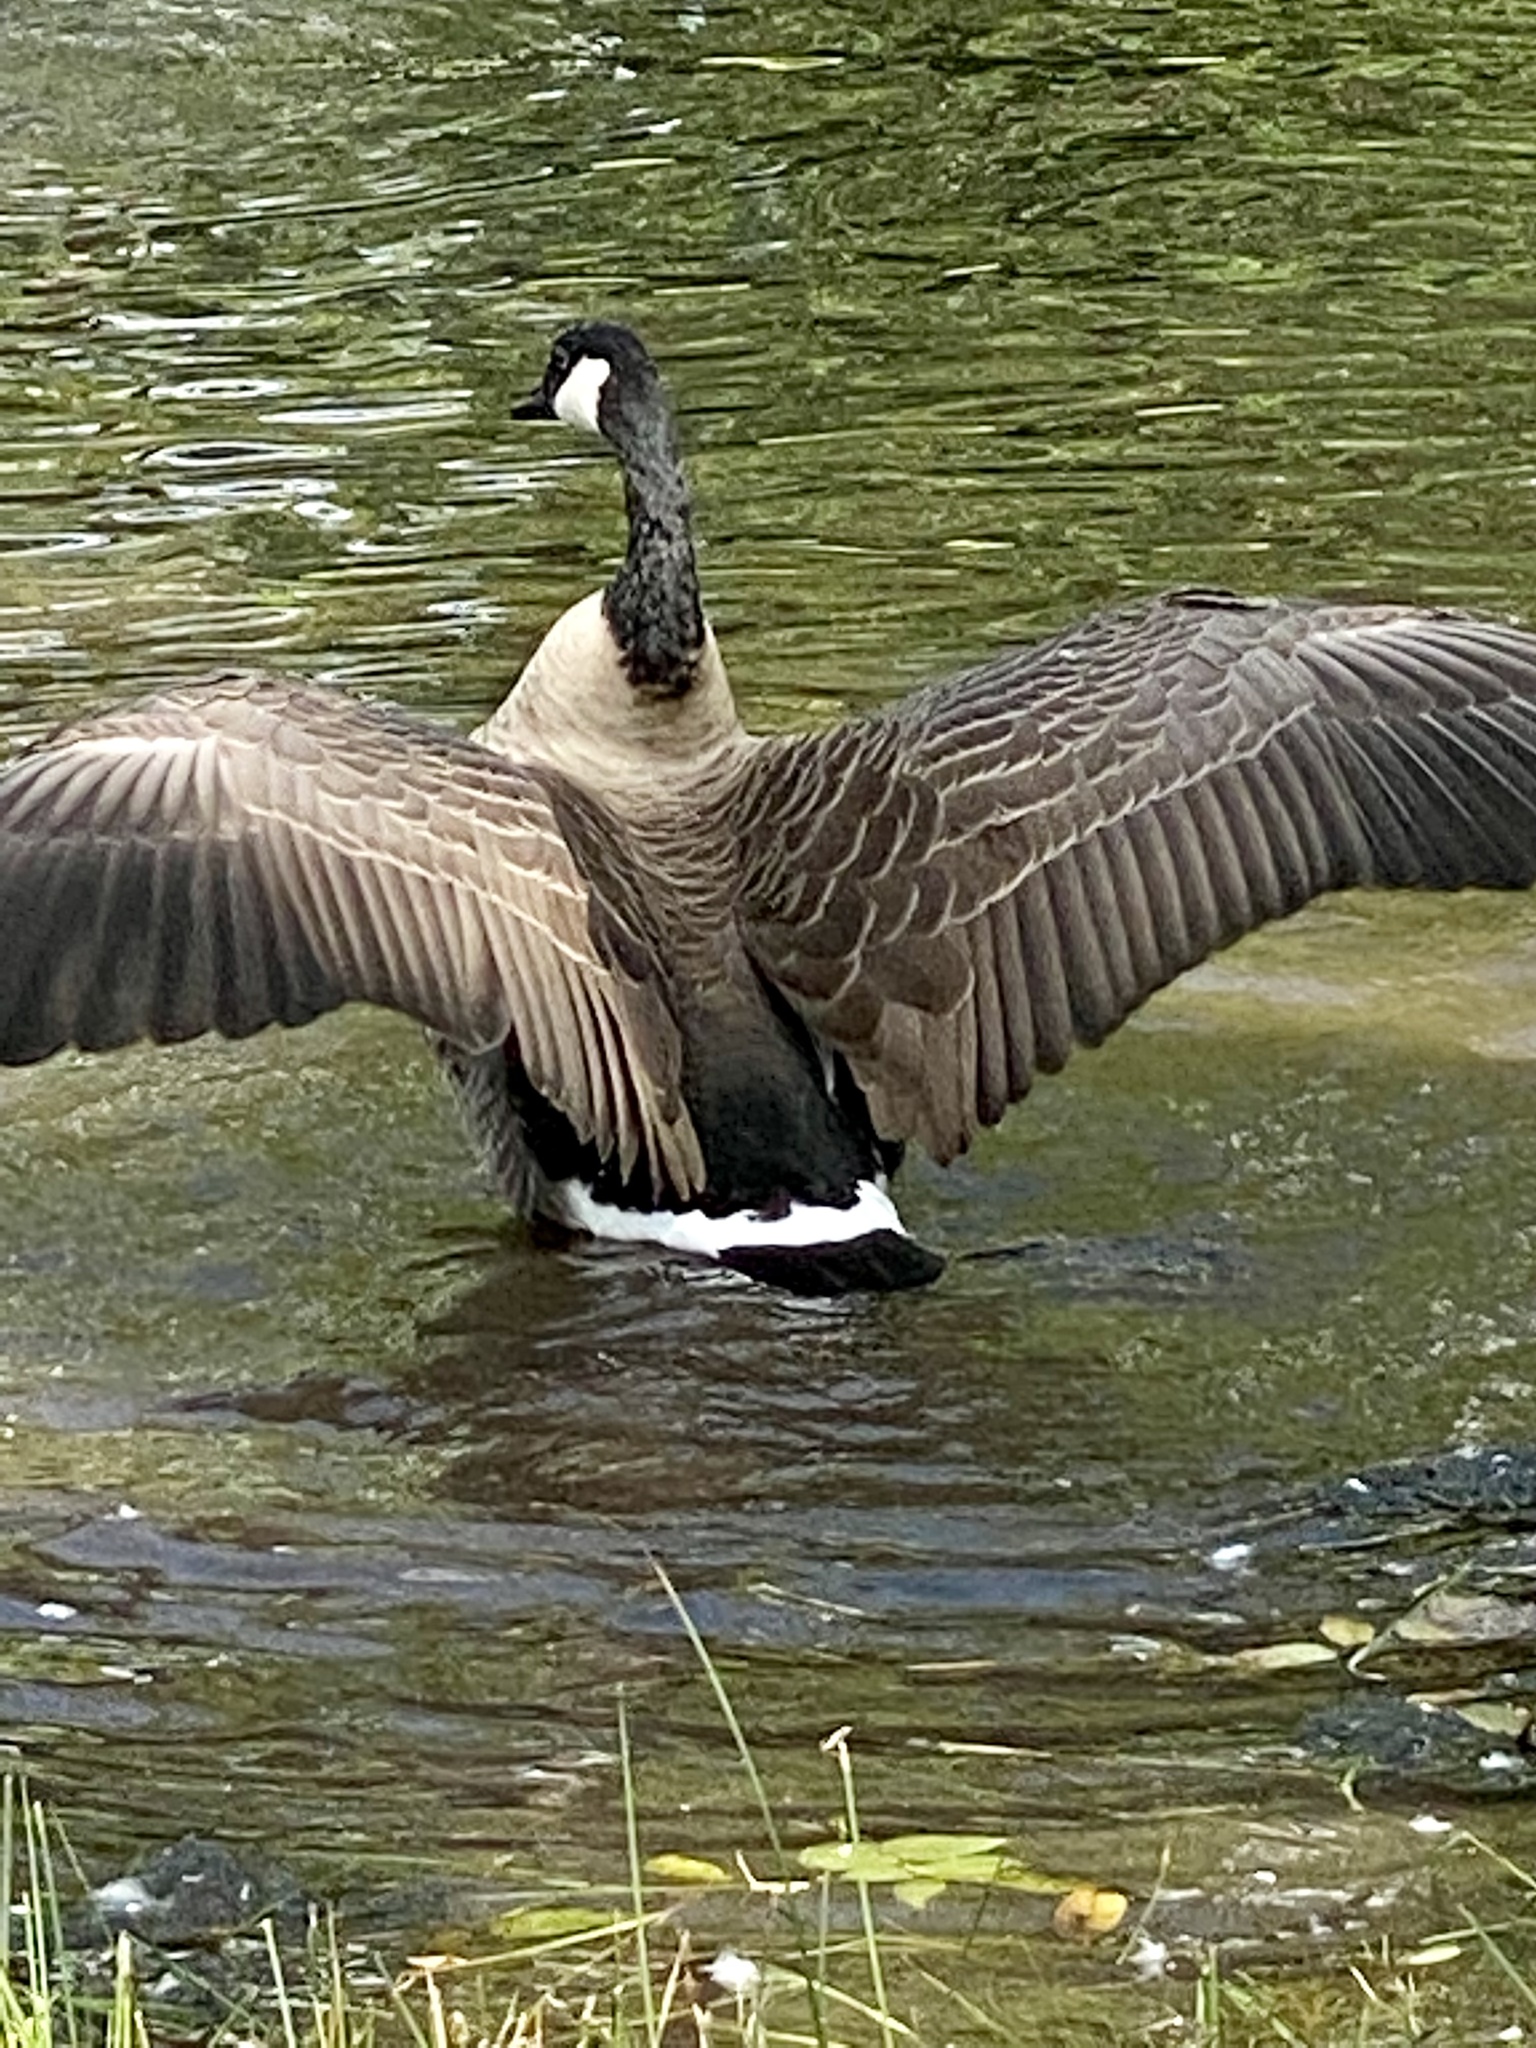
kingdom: Animalia
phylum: Chordata
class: Aves
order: Anseriformes
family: Anatidae
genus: Branta
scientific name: Branta canadensis
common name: Canada goose
